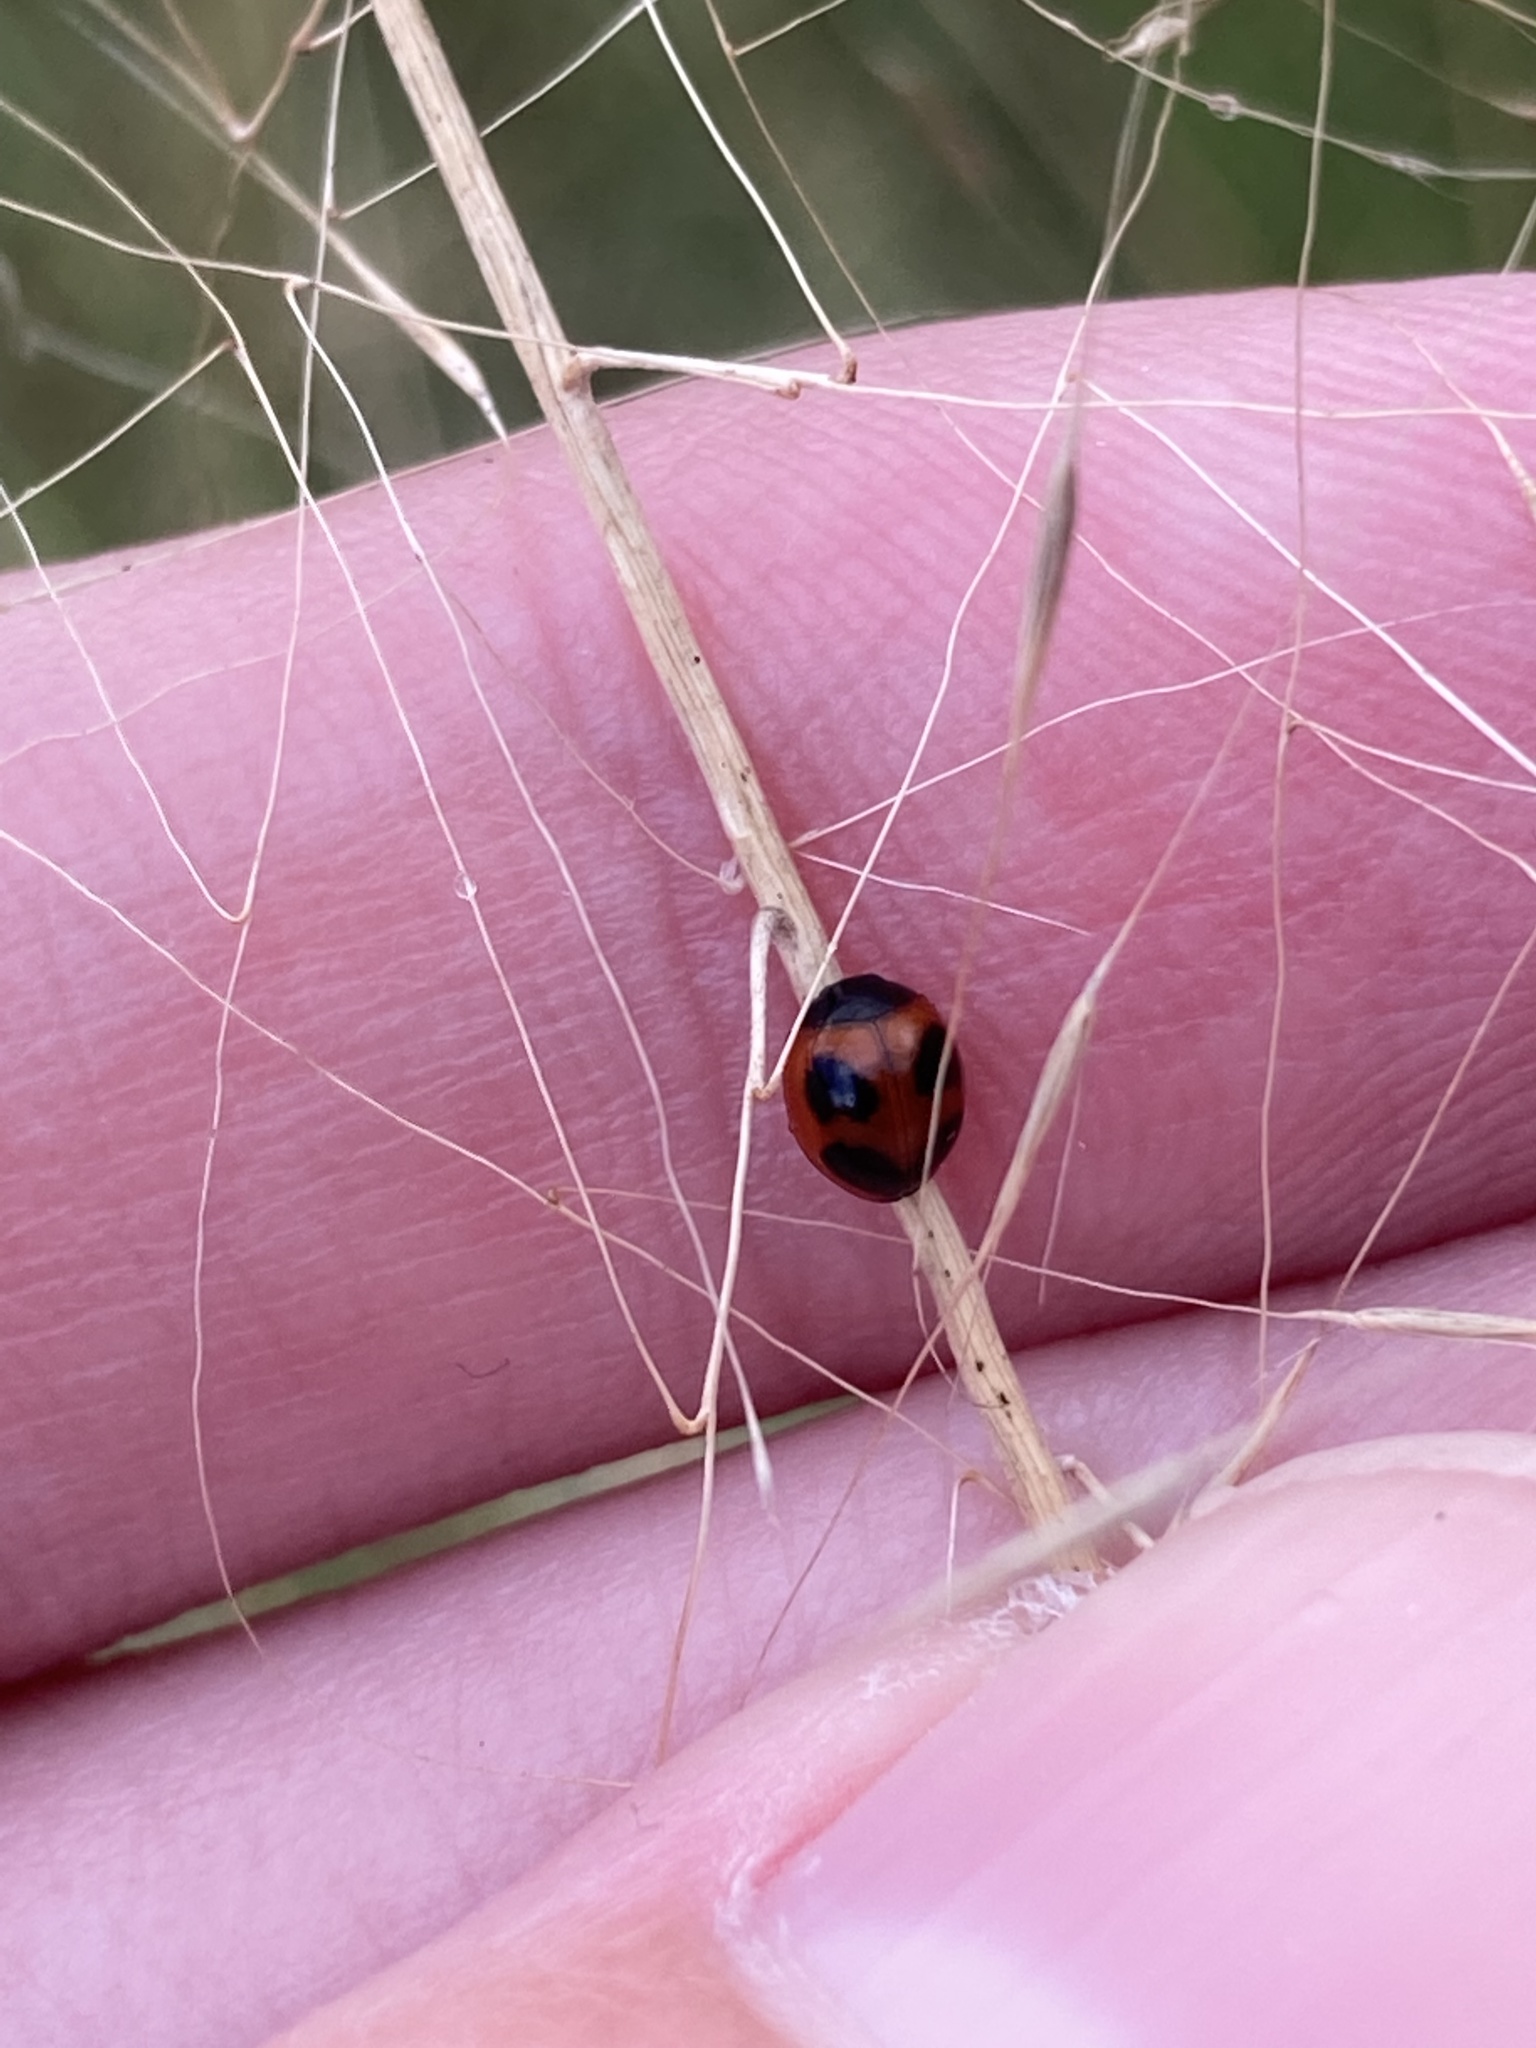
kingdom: Animalia
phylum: Arthropoda
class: Insecta
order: Coleoptera
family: Coccinellidae
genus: Exochomus
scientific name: Exochomus childreni
